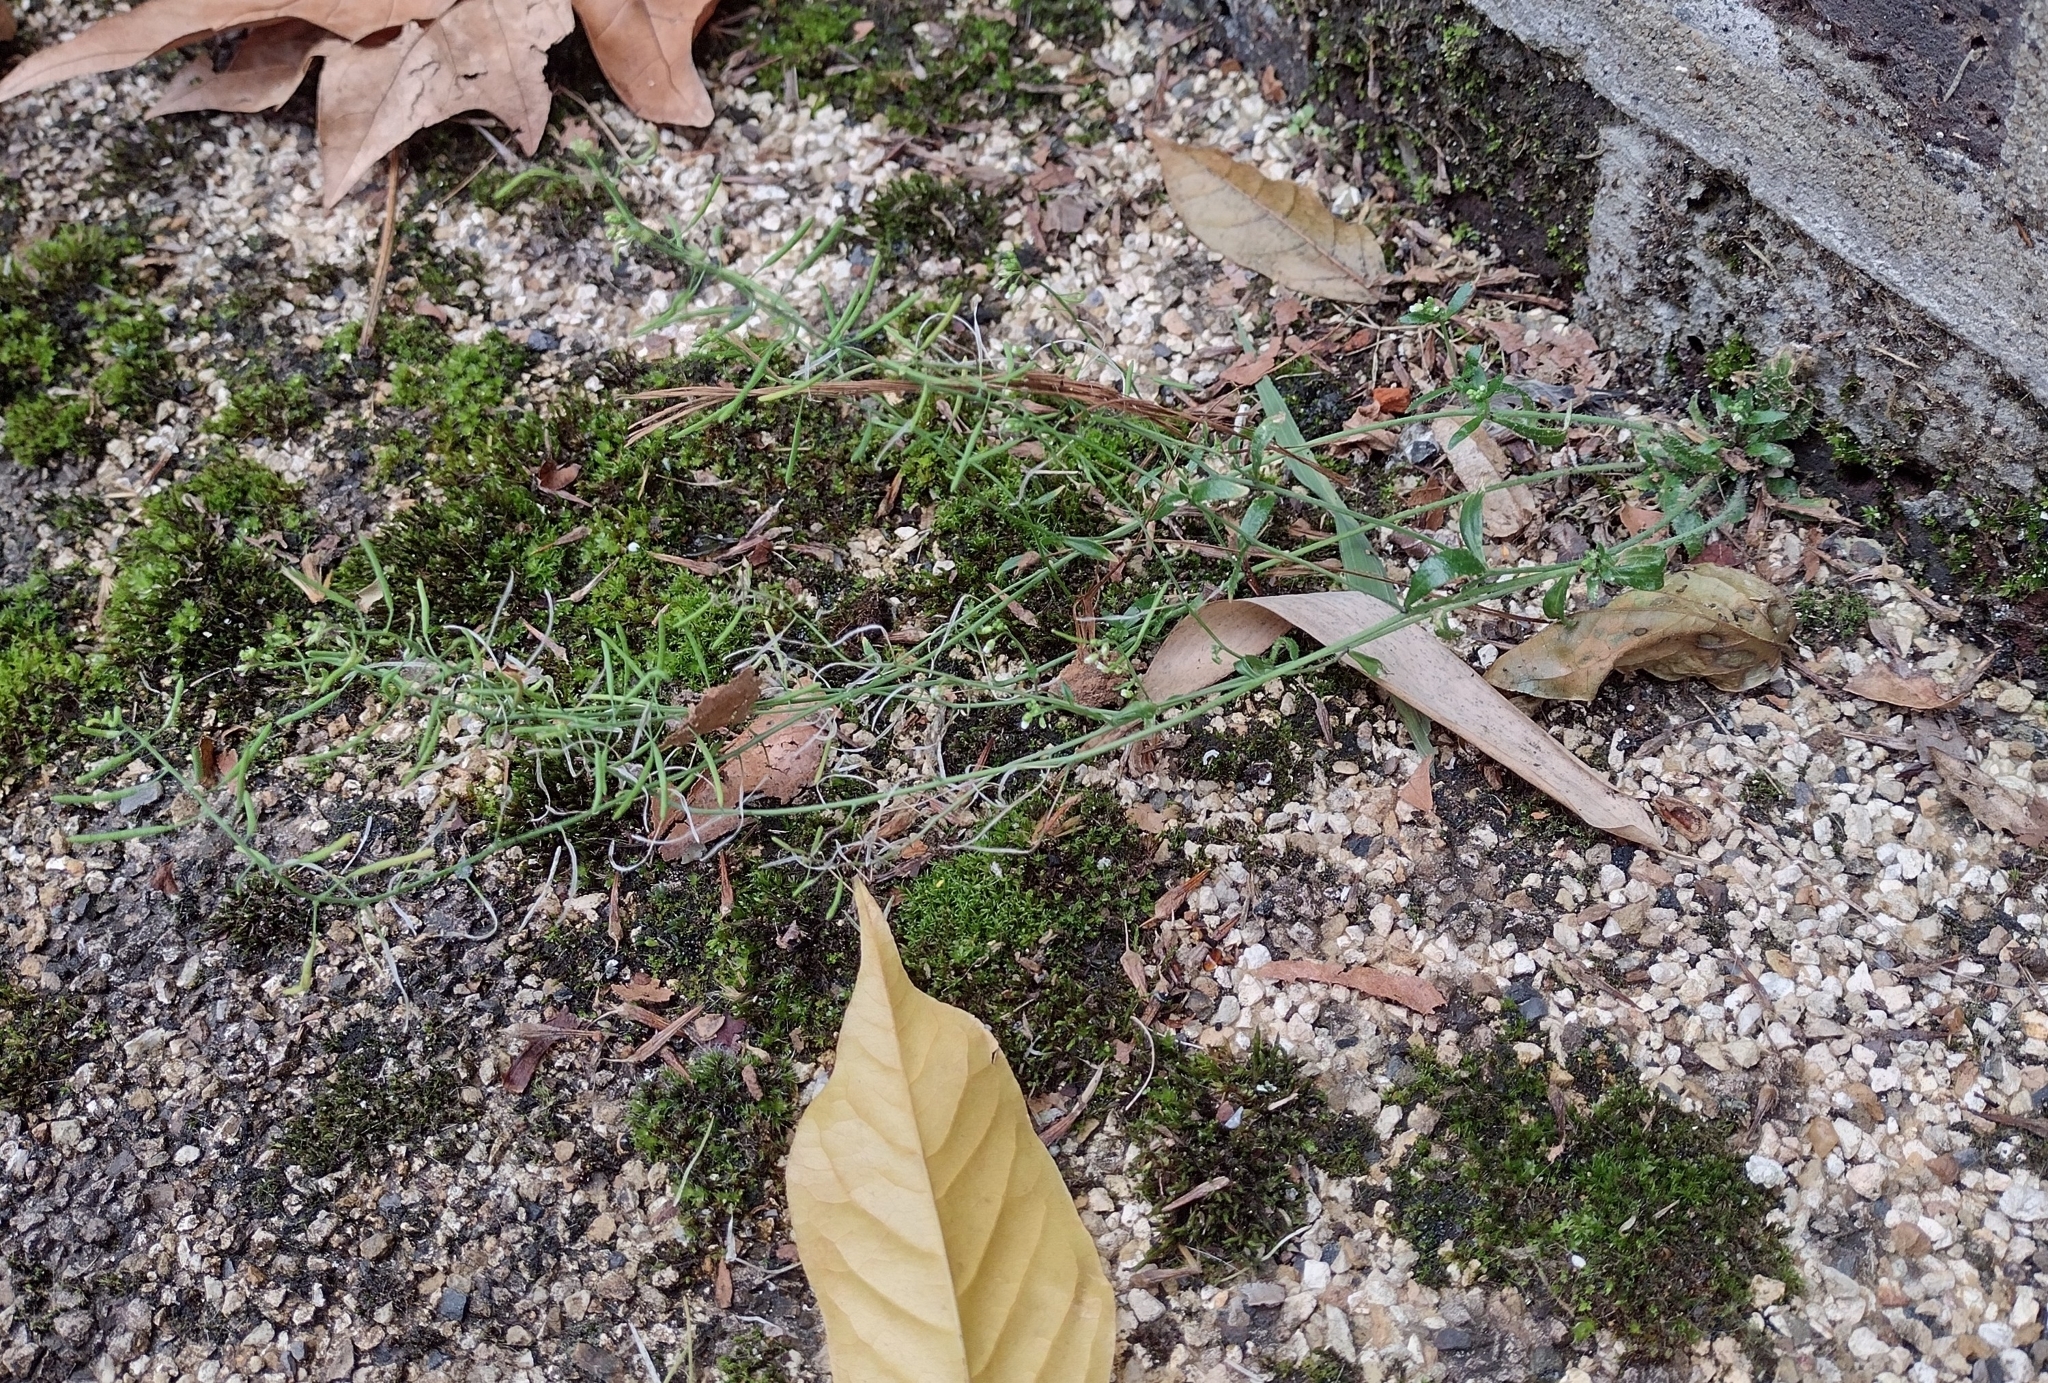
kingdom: Plantae
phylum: Tracheophyta
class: Magnoliopsida
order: Brassicales
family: Brassicaceae
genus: Arabidopsis
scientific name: Arabidopsis thaliana
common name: Thale cress
